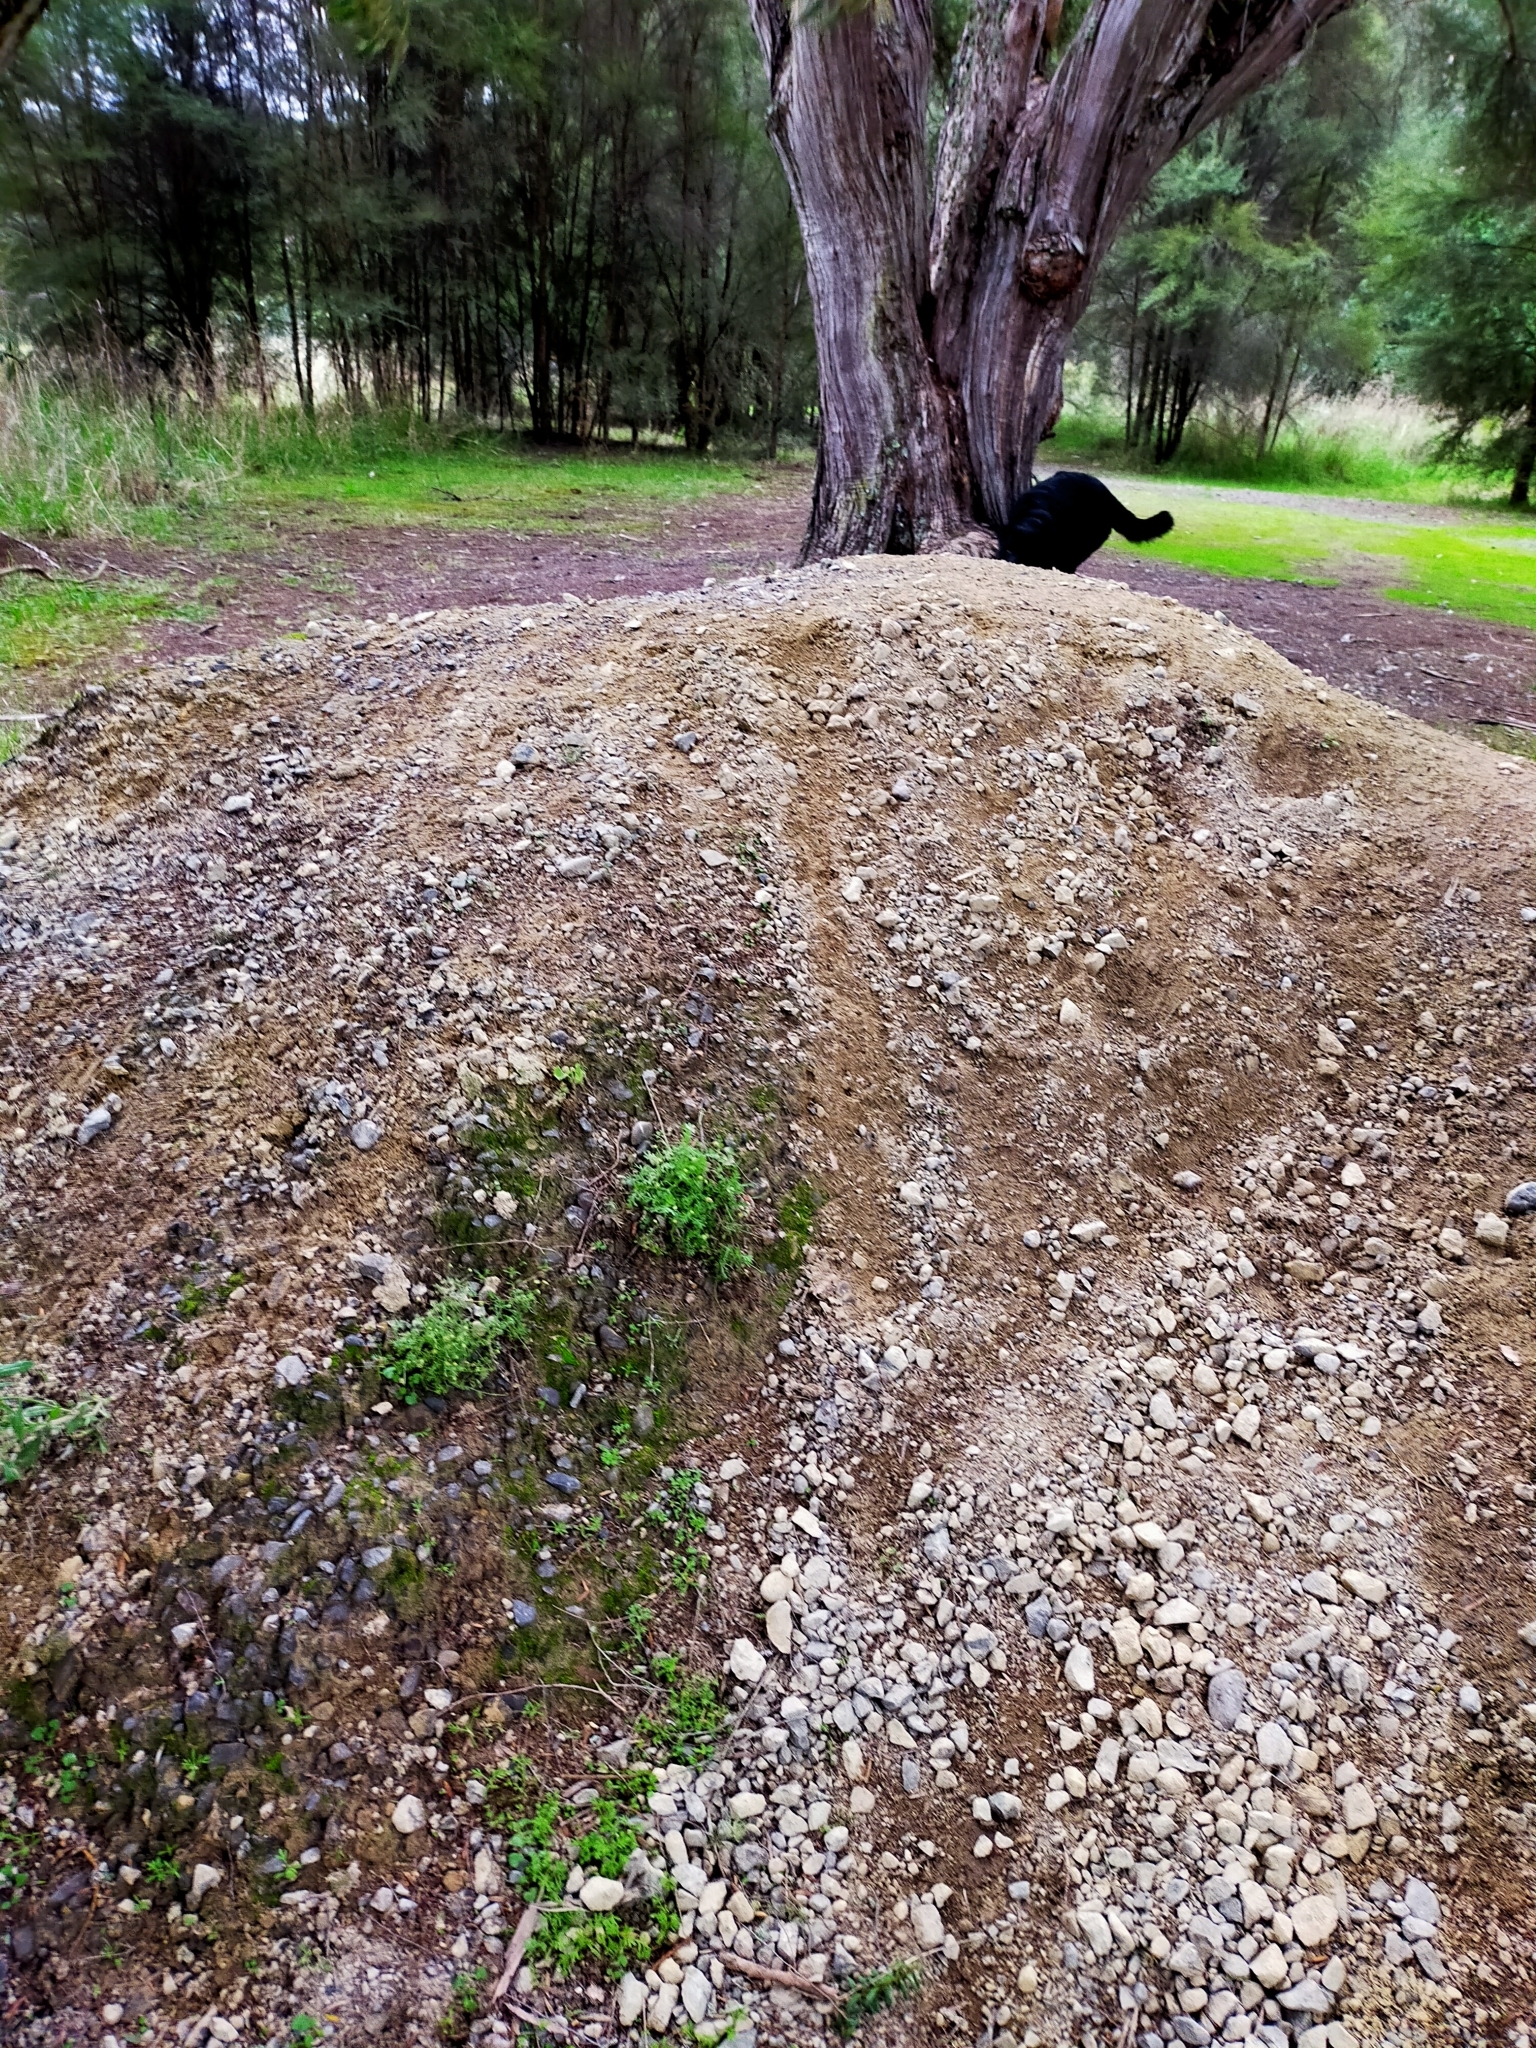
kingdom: Plantae
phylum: Tracheophyta
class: Magnoliopsida
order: Asterales
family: Asteraceae
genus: Cotula
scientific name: Cotula australis
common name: Australian waterbuttons
